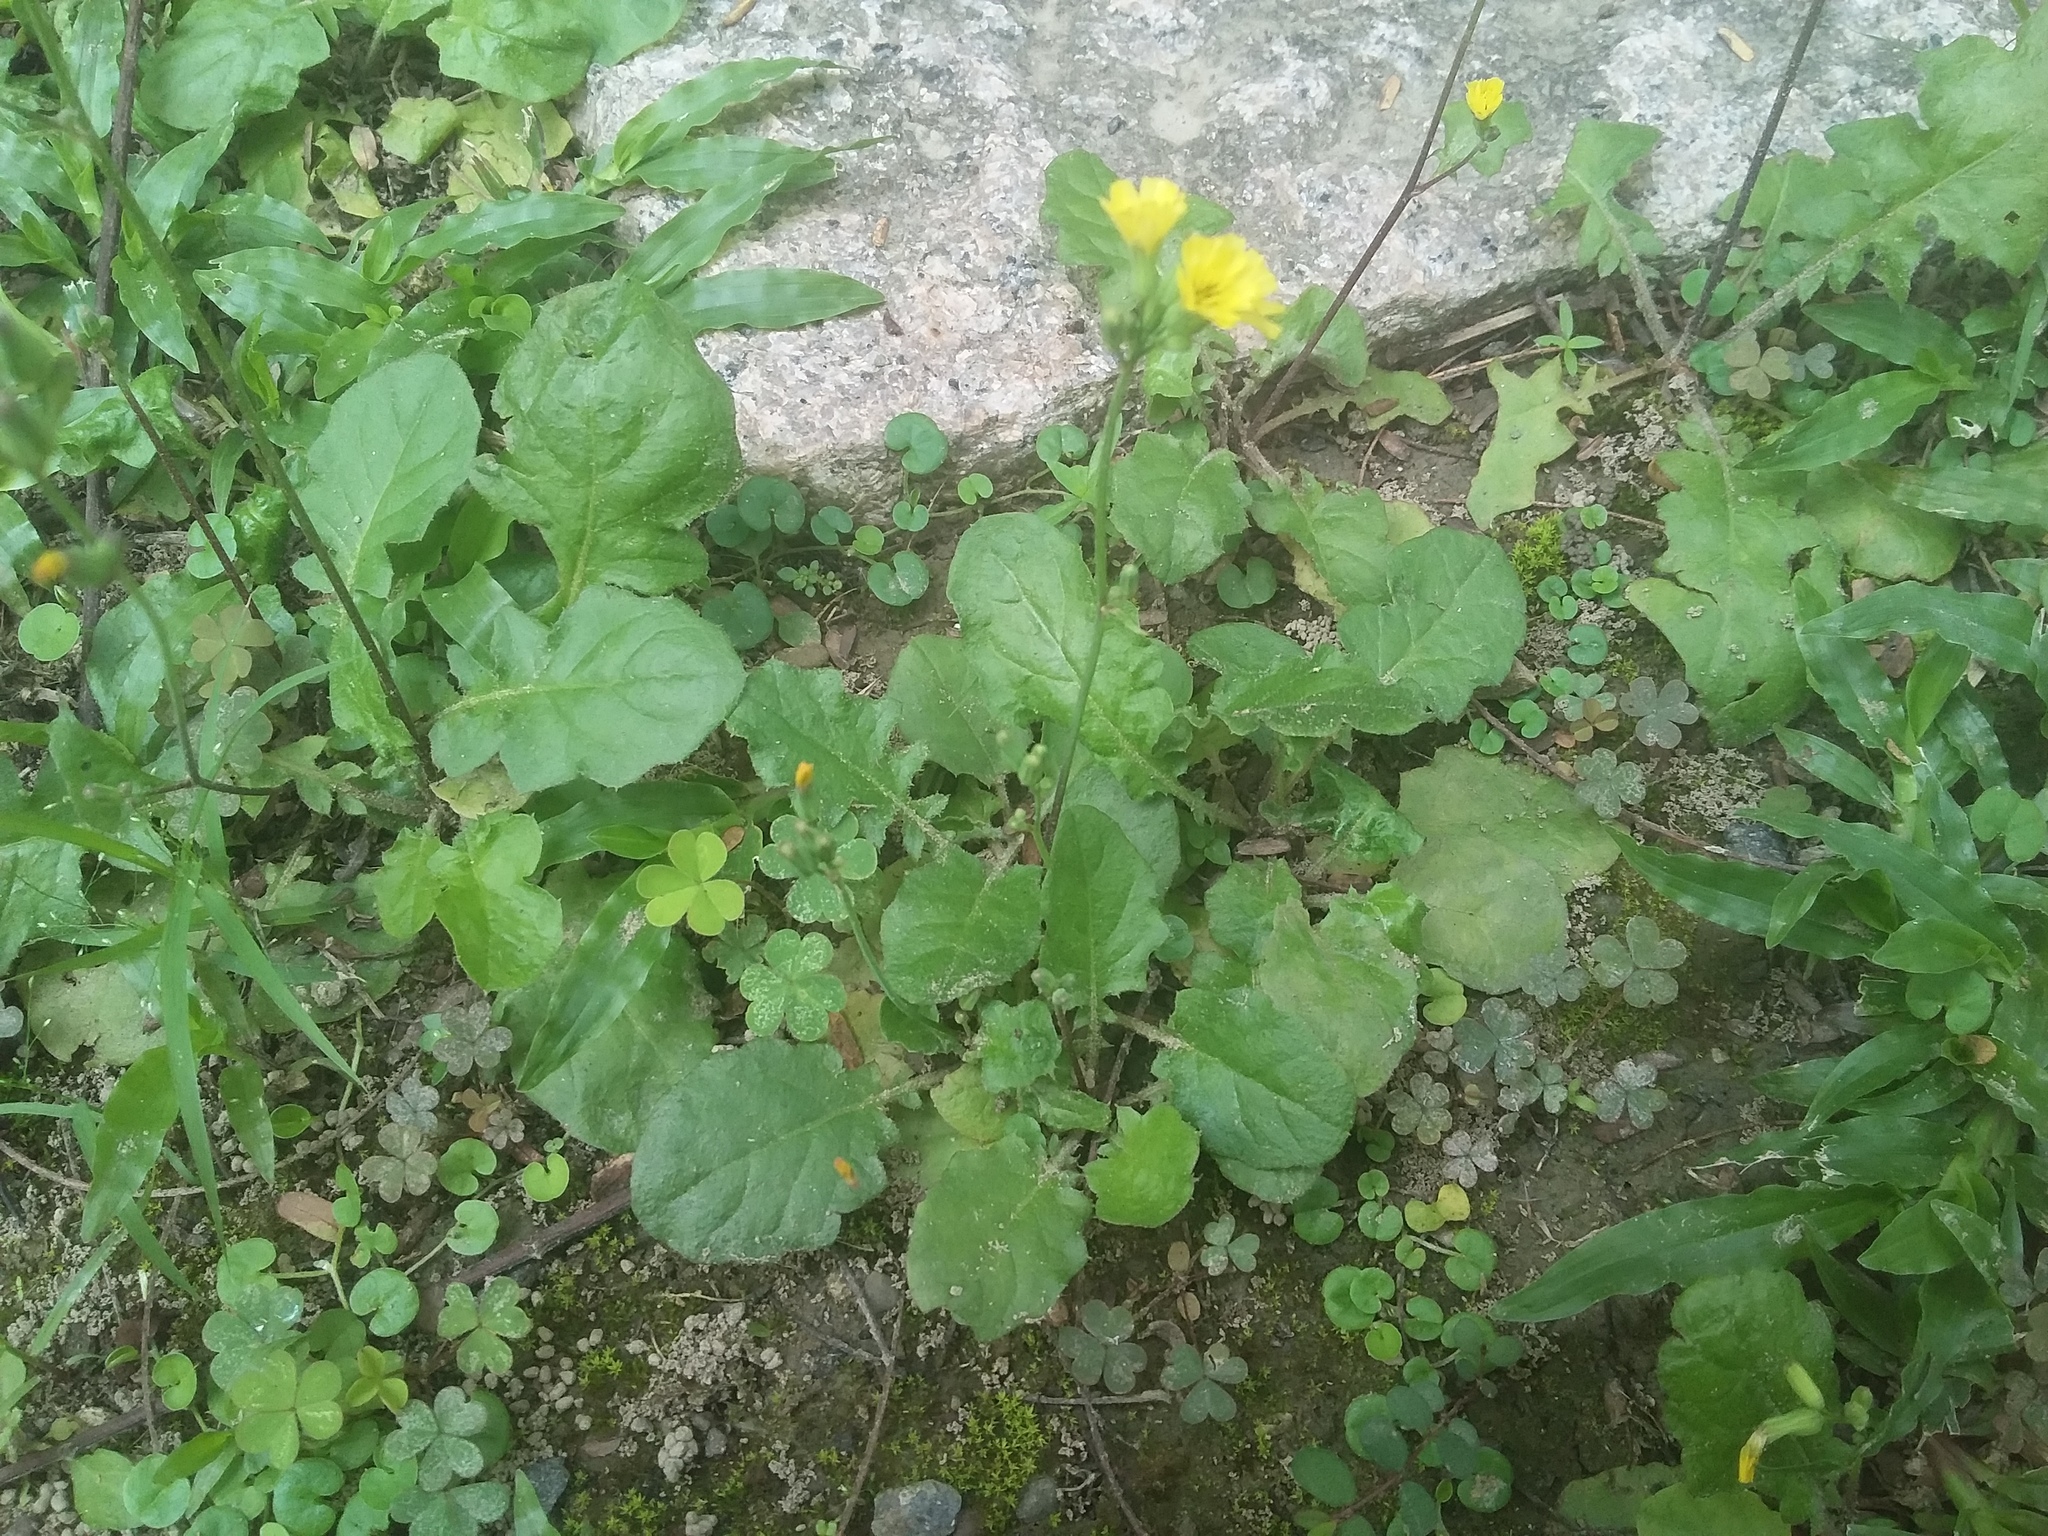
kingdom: Plantae
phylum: Tracheophyta
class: Magnoliopsida
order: Asterales
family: Asteraceae
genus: Youngia
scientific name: Youngia japonica
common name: Oriental false hawksbeard
